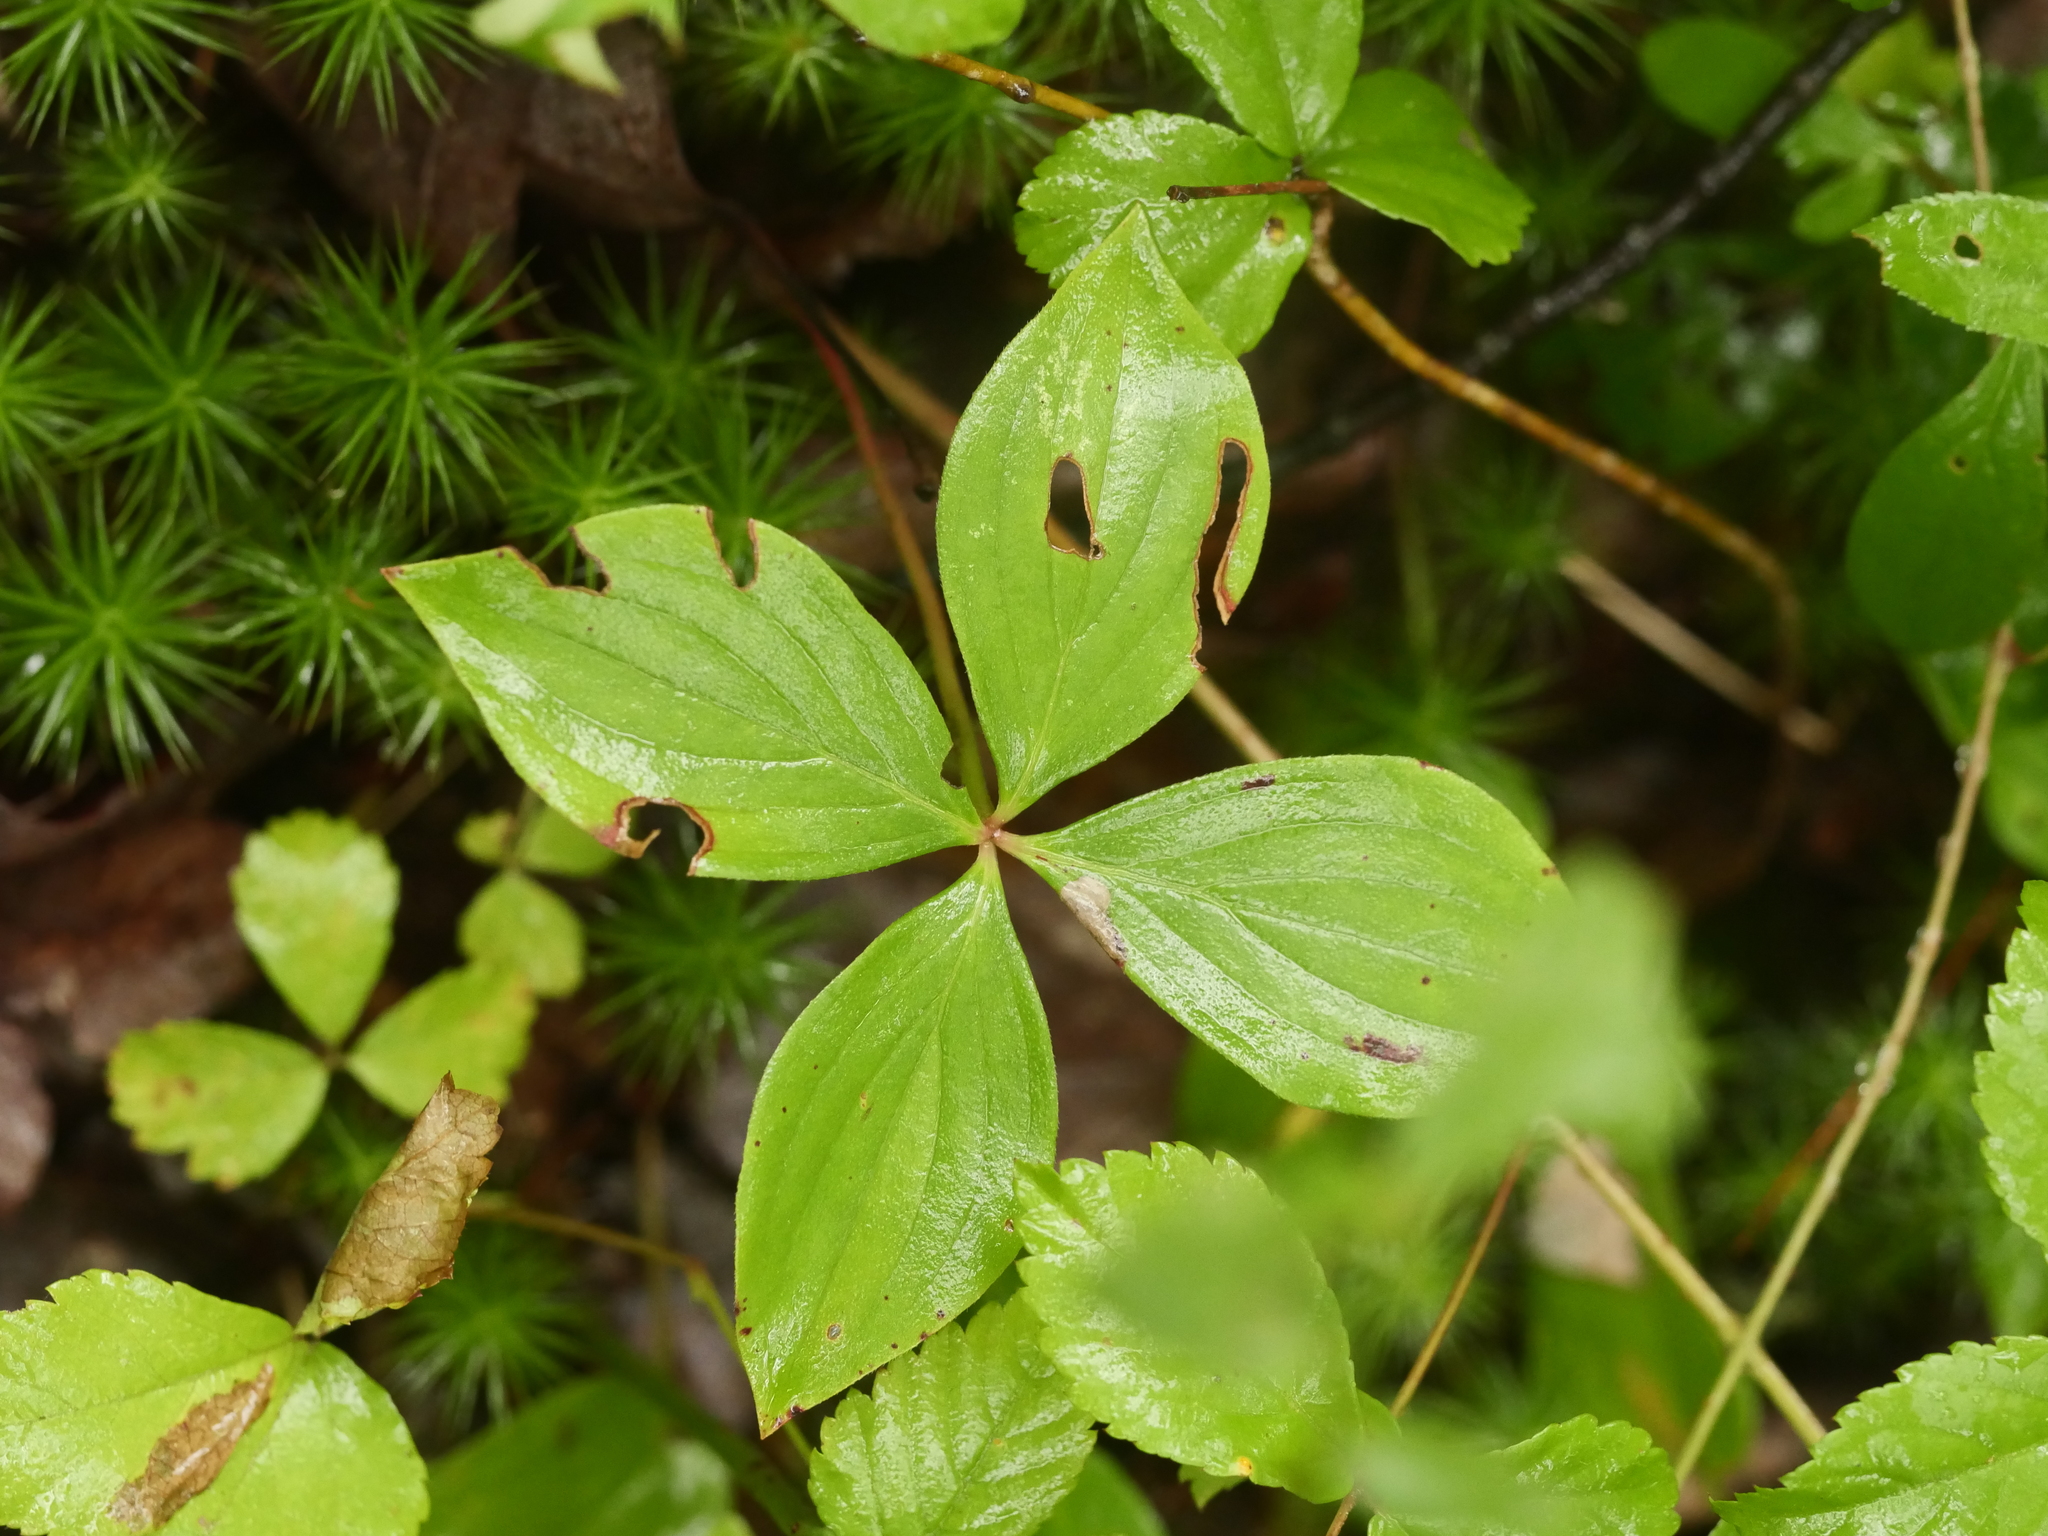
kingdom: Plantae
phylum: Tracheophyta
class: Magnoliopsida
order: Cornales
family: Cornaceae
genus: Cornus
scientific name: Cornus canadensis
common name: Creeping dogwood
